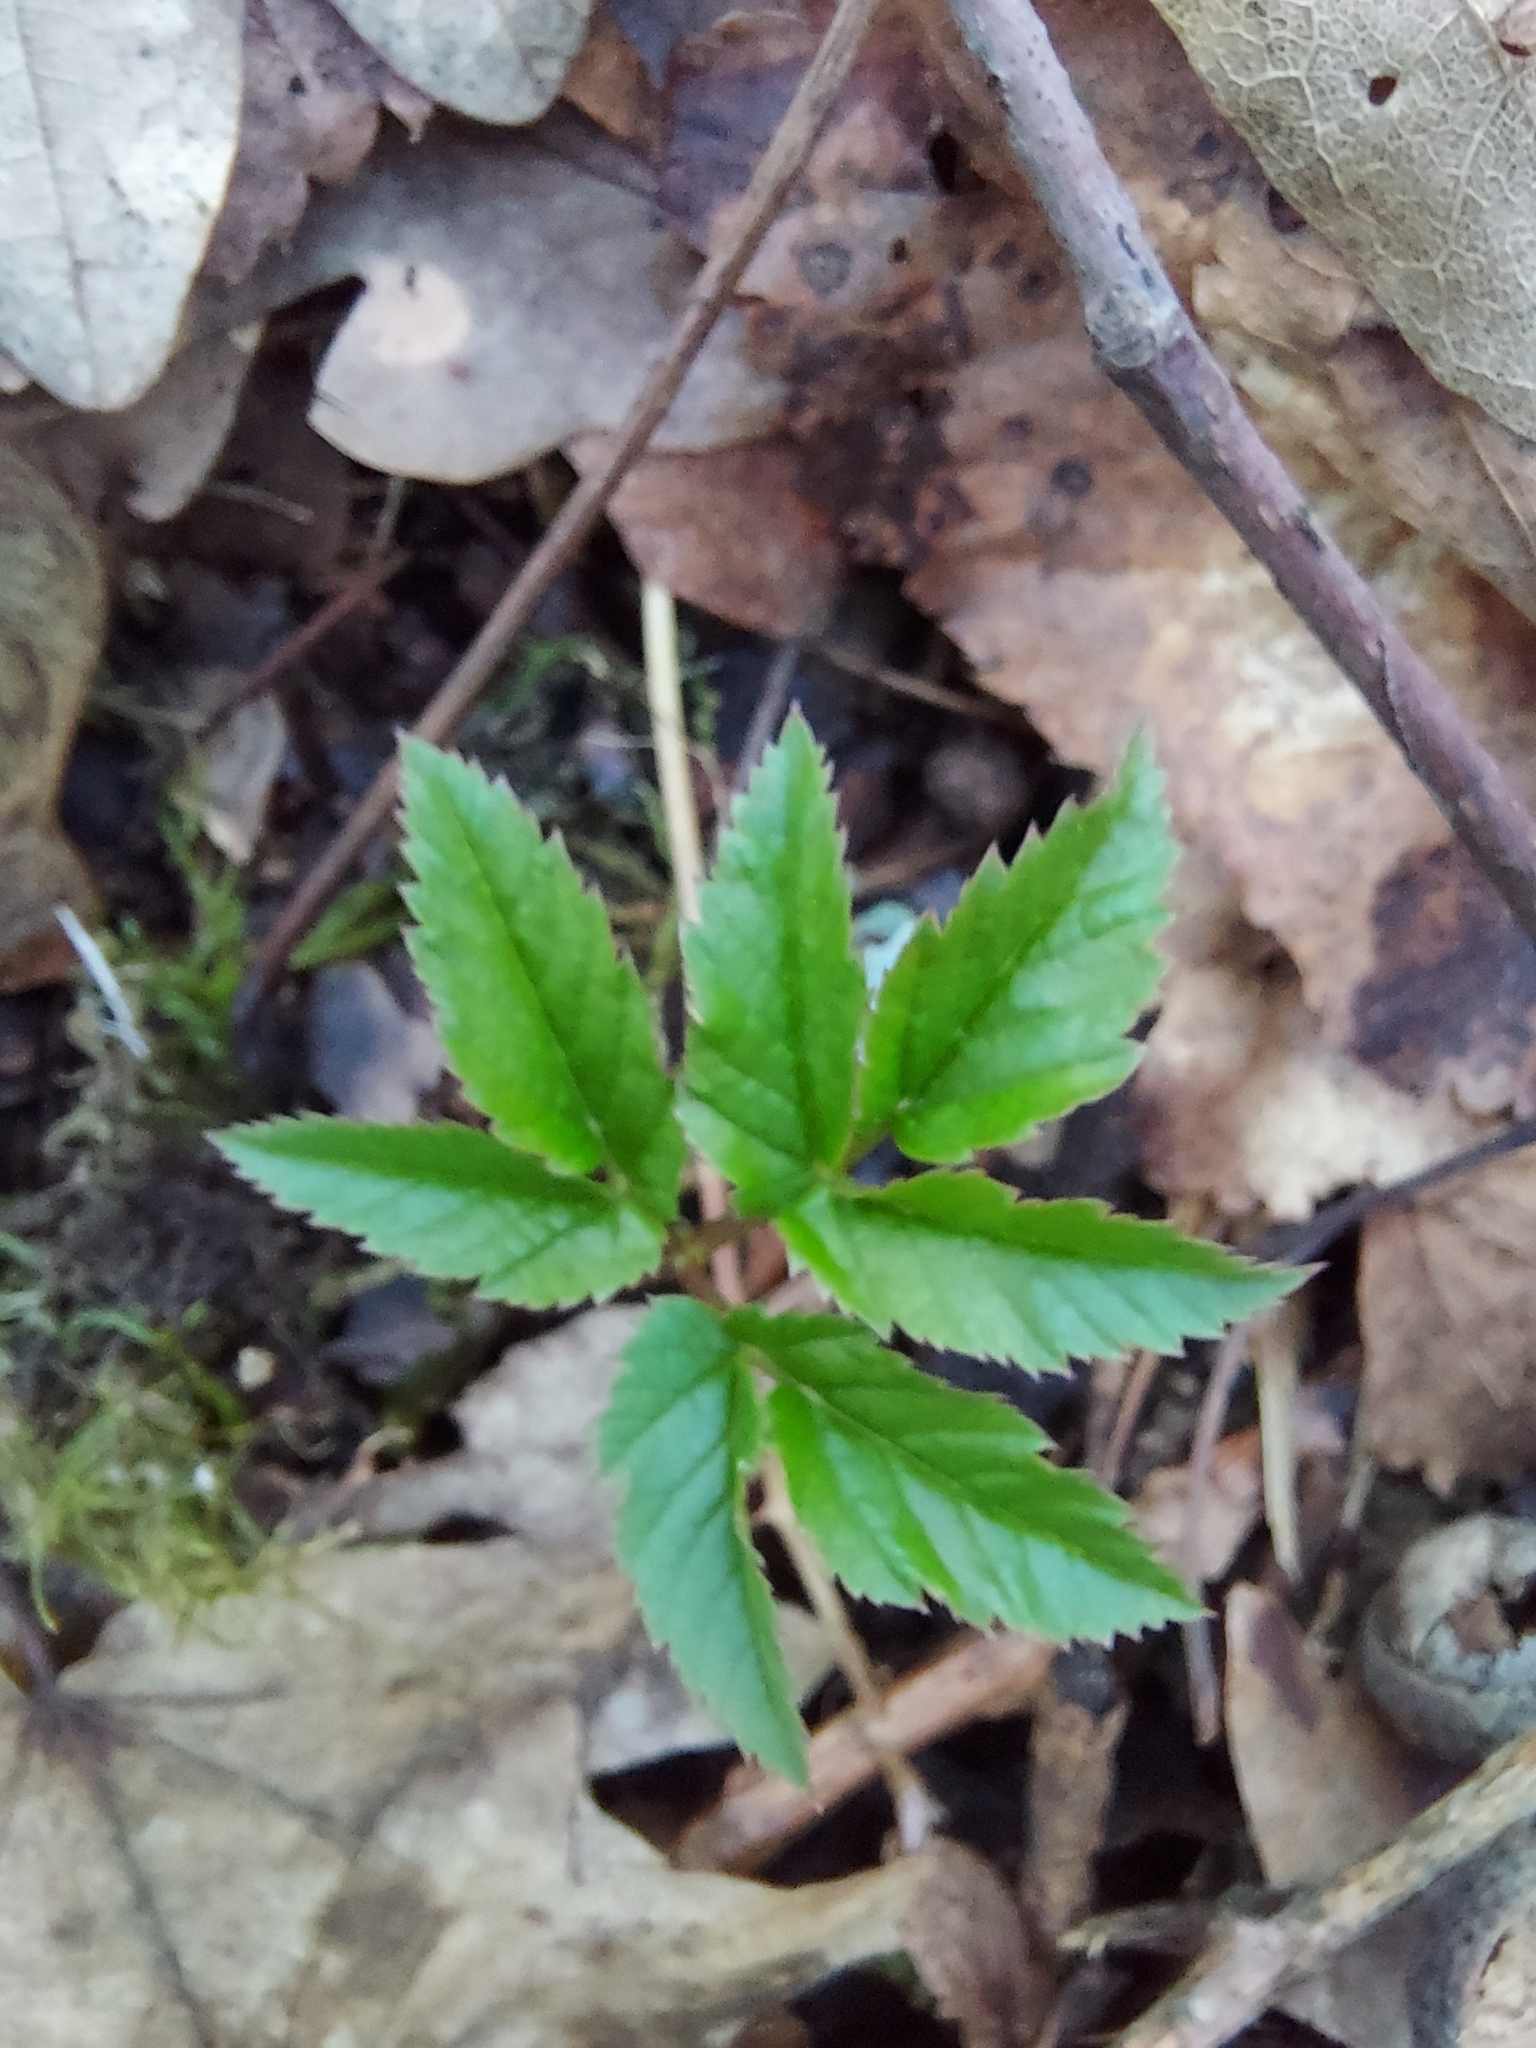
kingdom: Plantae
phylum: Tracheophyta
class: Magnoliopsida
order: Apiales
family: Apiaceae
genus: Aegopodium
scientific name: Aegopodium podagraria
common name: Ground-elder
